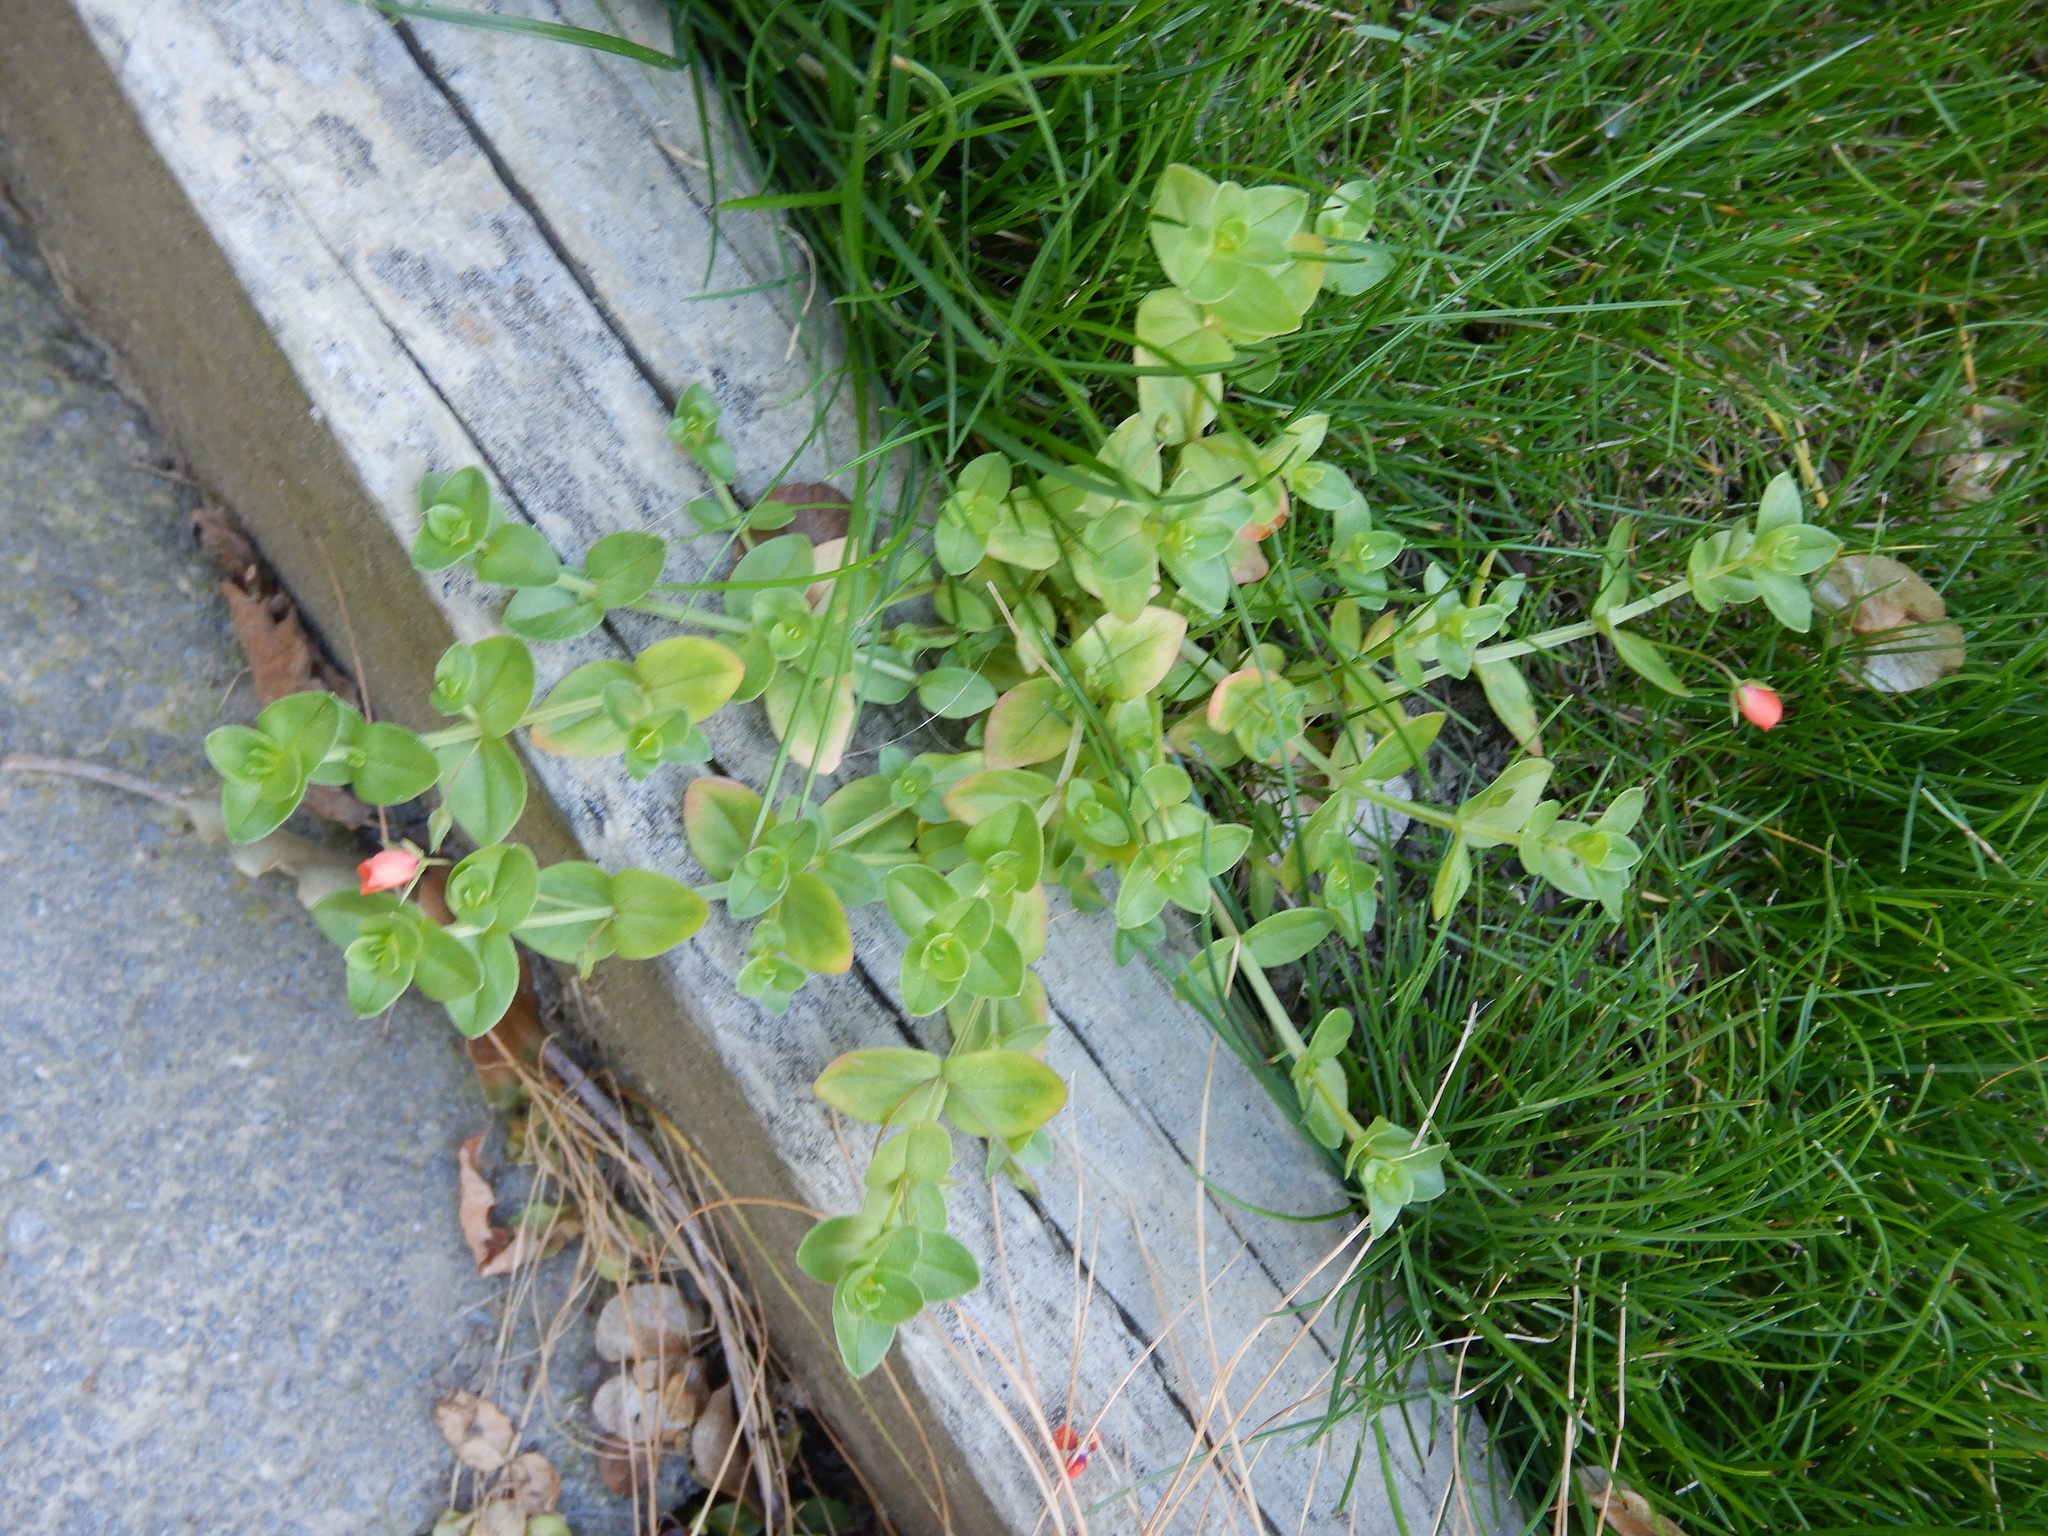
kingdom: Plantae
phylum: Tracheophyta
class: Magnoliopsida
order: Ericales
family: Primulaceae
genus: Lysimachia
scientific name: Lysimachia arvensis
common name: Scarlet pimpernel
